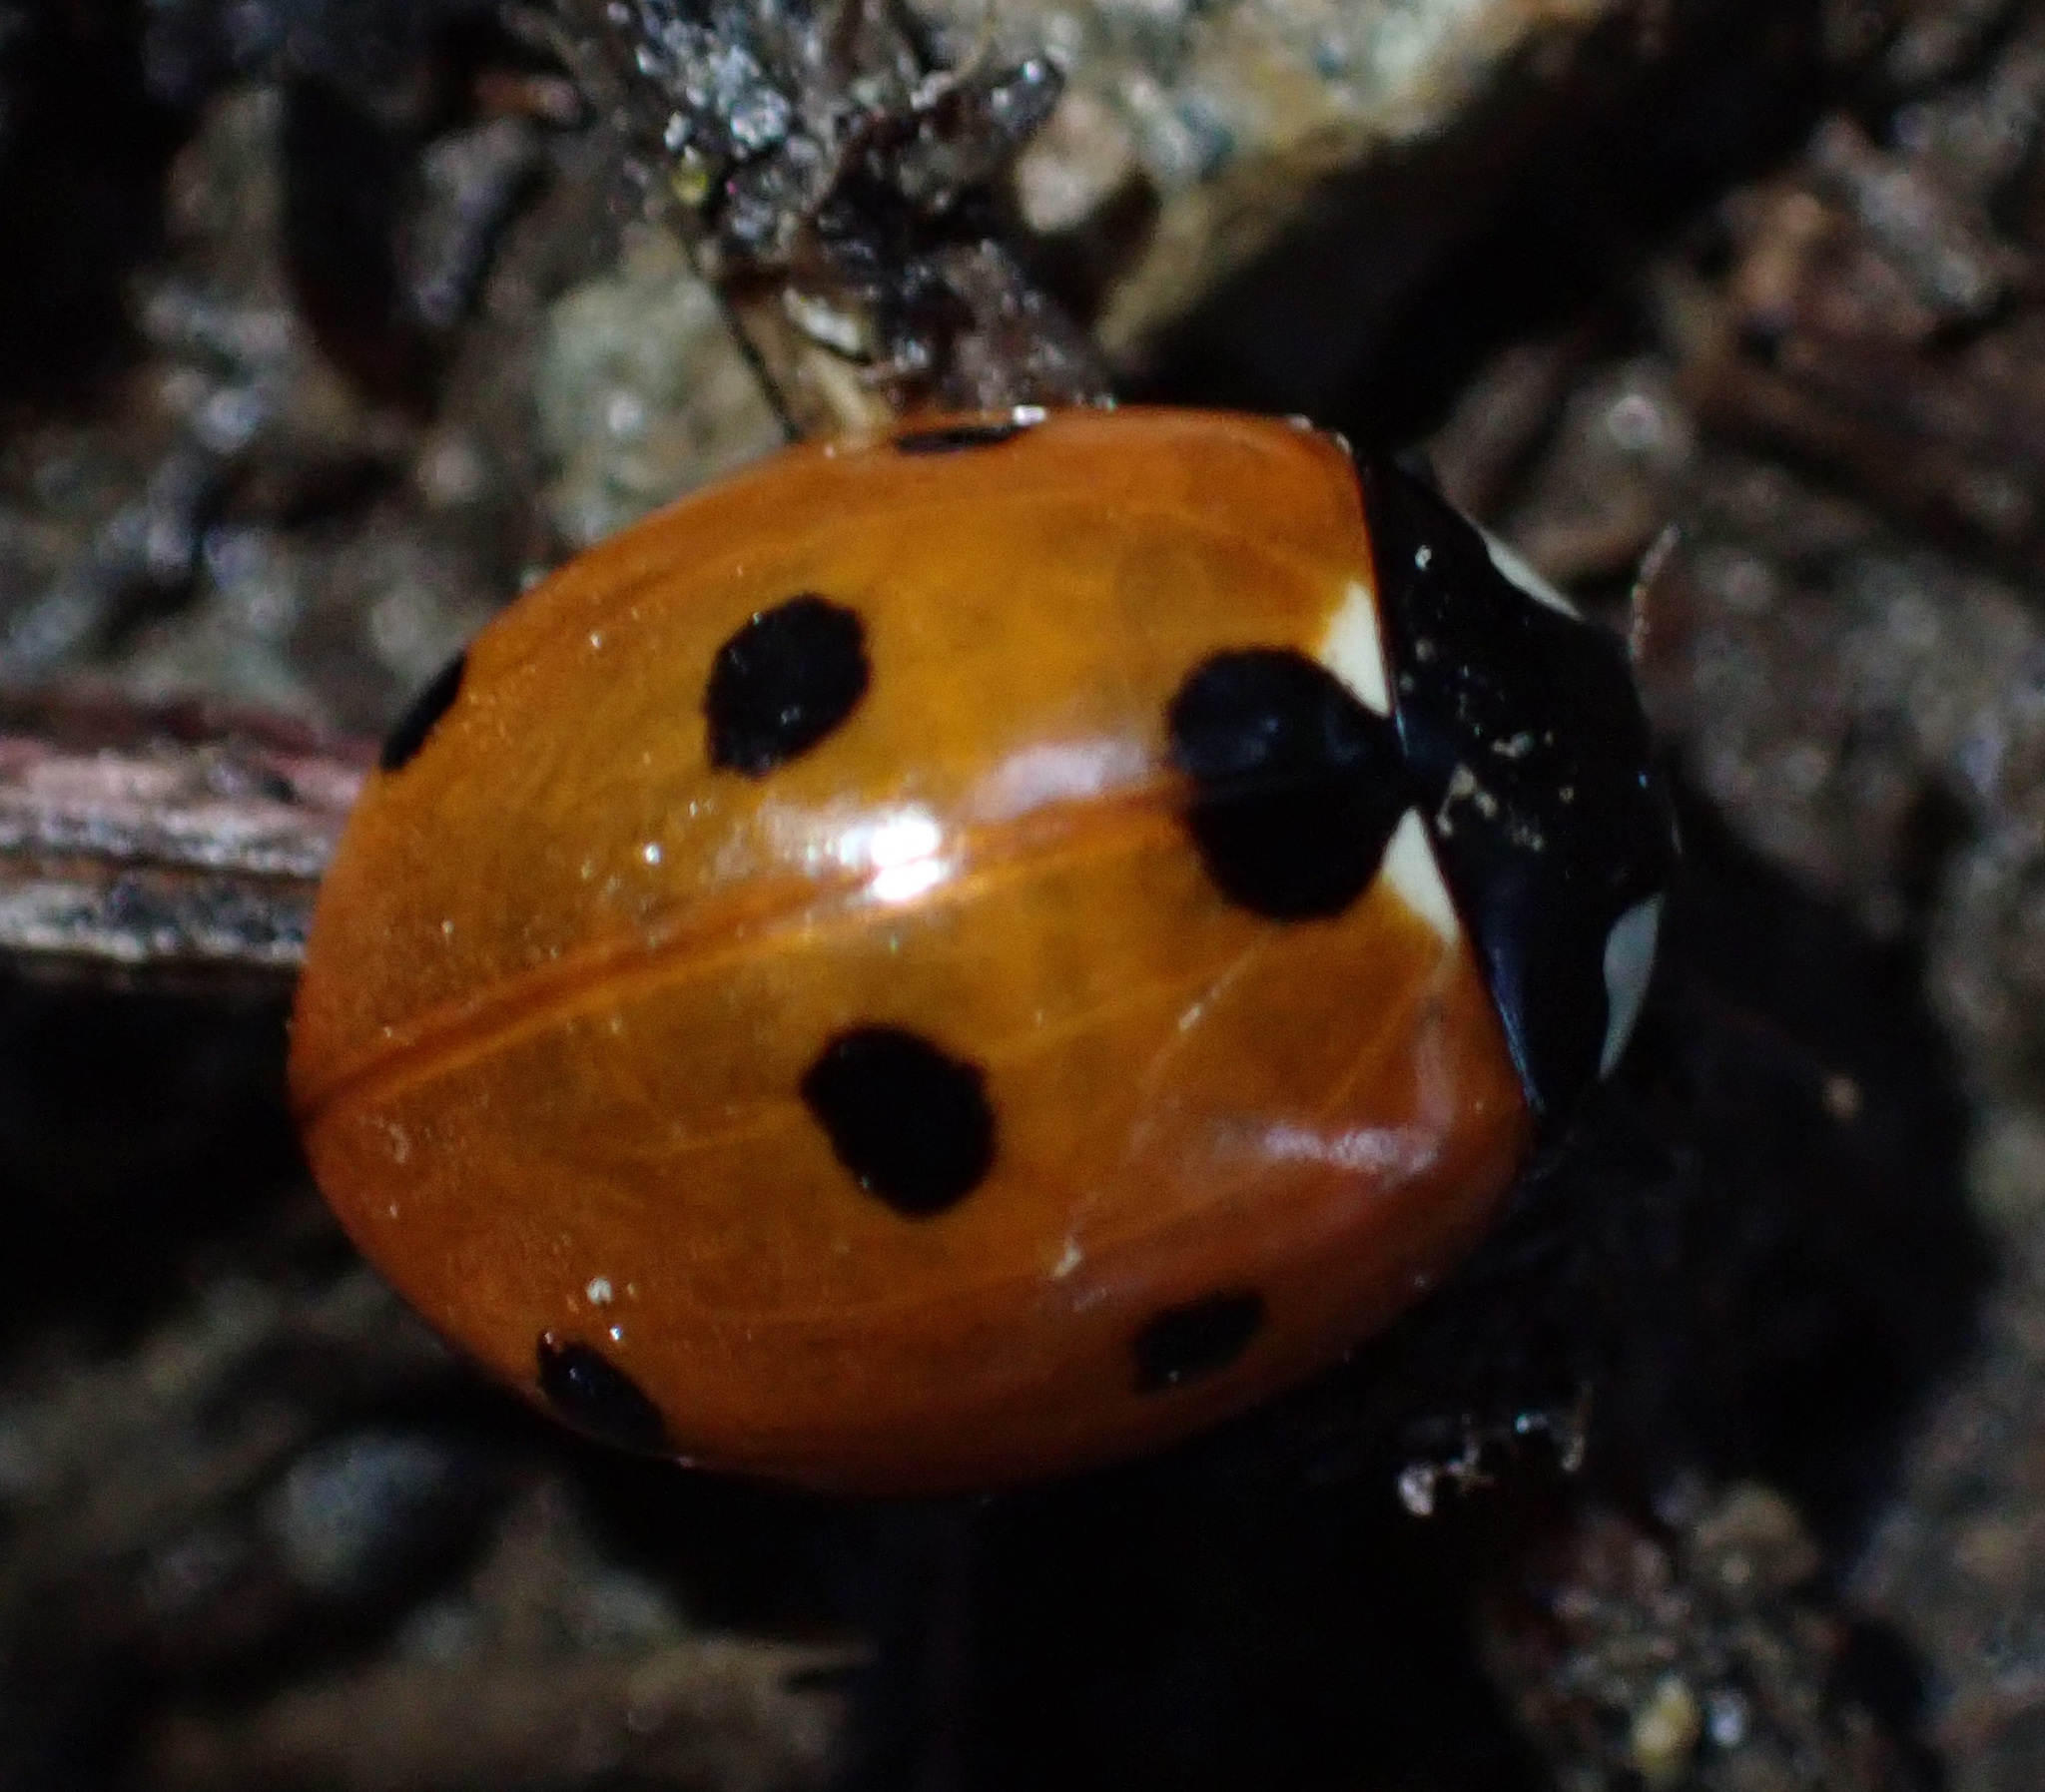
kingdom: Animalia
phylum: Arthropoda
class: Insecta
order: Coleoptera
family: Coccinellidae
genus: Coccinella
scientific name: Coccinella septempunctata
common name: Sevenspotted lady beetle
